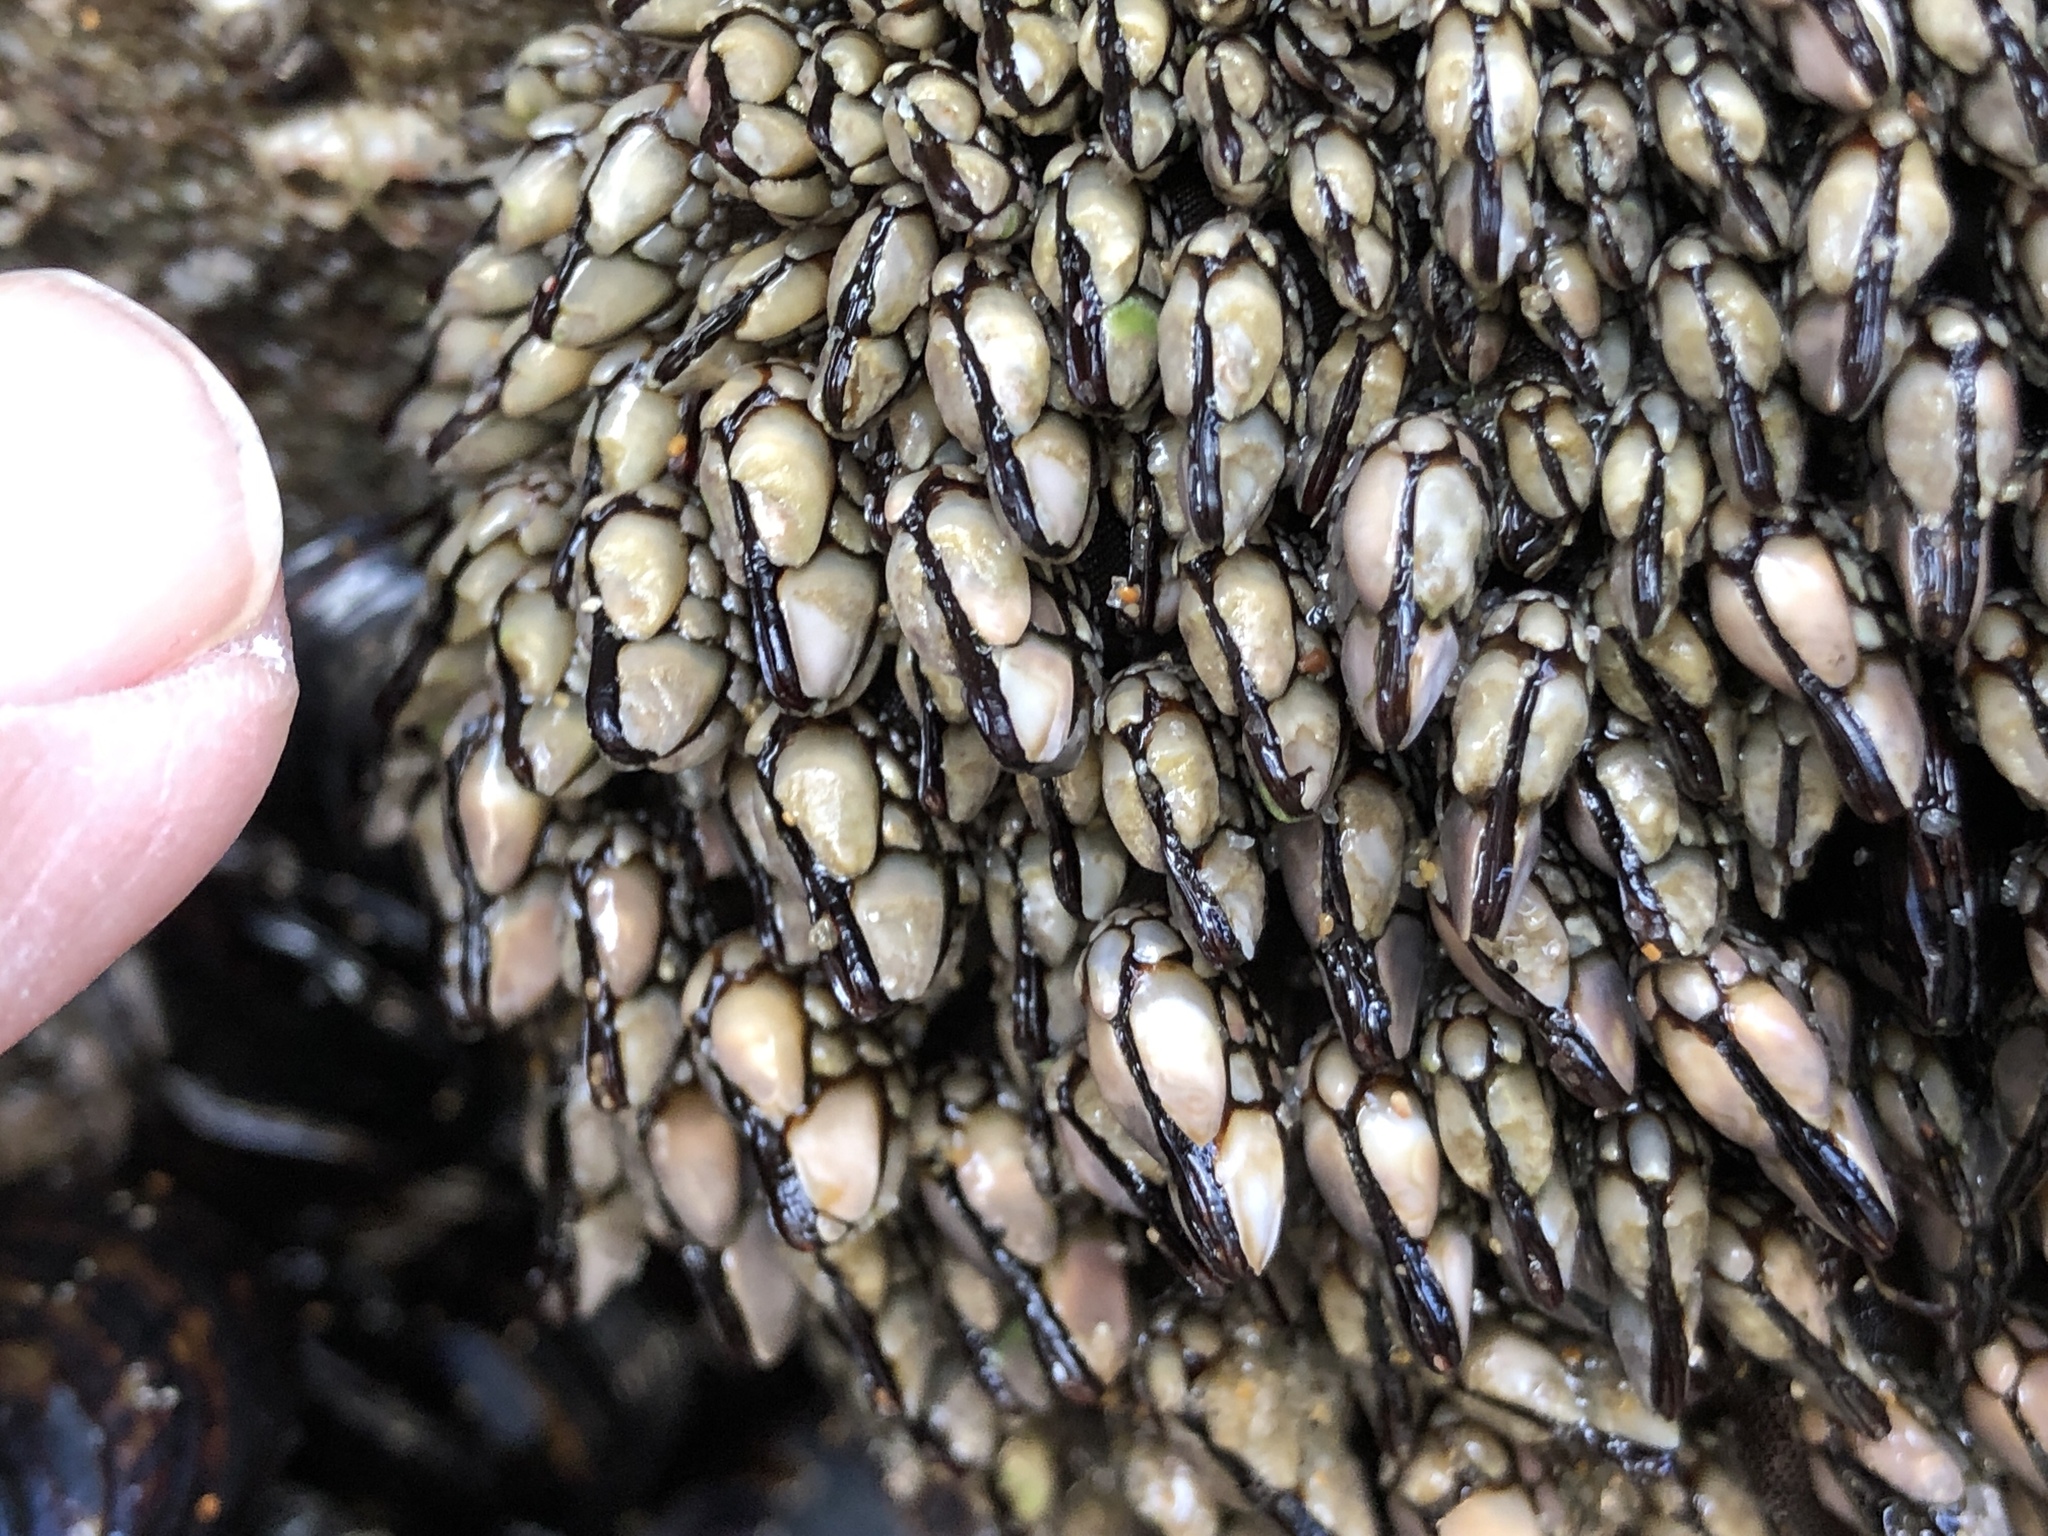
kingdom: Animalia
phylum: Arthropoda
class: Maxillopoda
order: Pedunculata
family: Pollicipedidae
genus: Pollicipes
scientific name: Pollicipes polymerus
